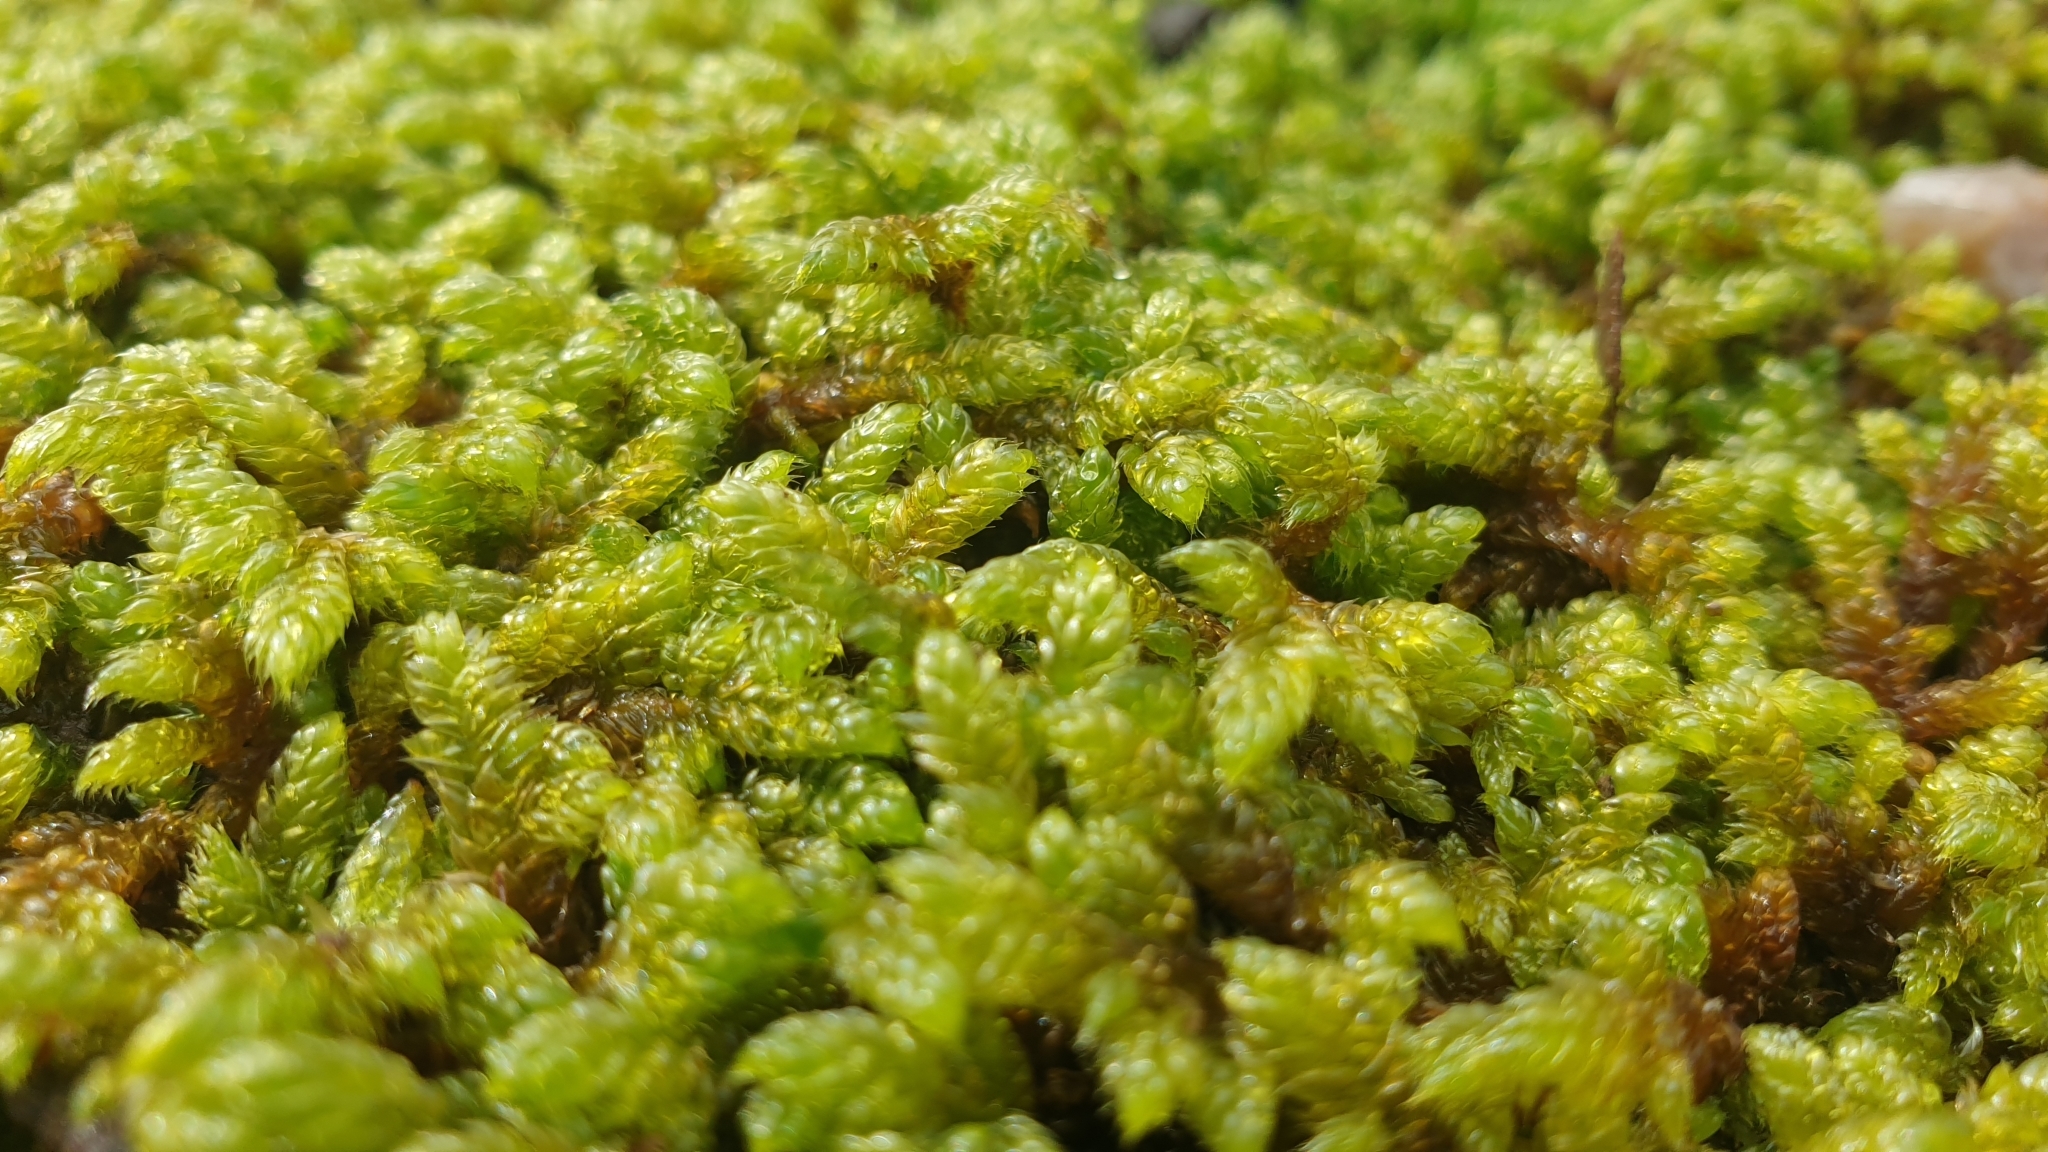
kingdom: Plantae
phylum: Bryophyta
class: Bryopsida
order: Hypnales
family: Hypnaceae
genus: Hypnum
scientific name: Hypnum cupressiforme
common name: Cypress-leaved plait-moss
